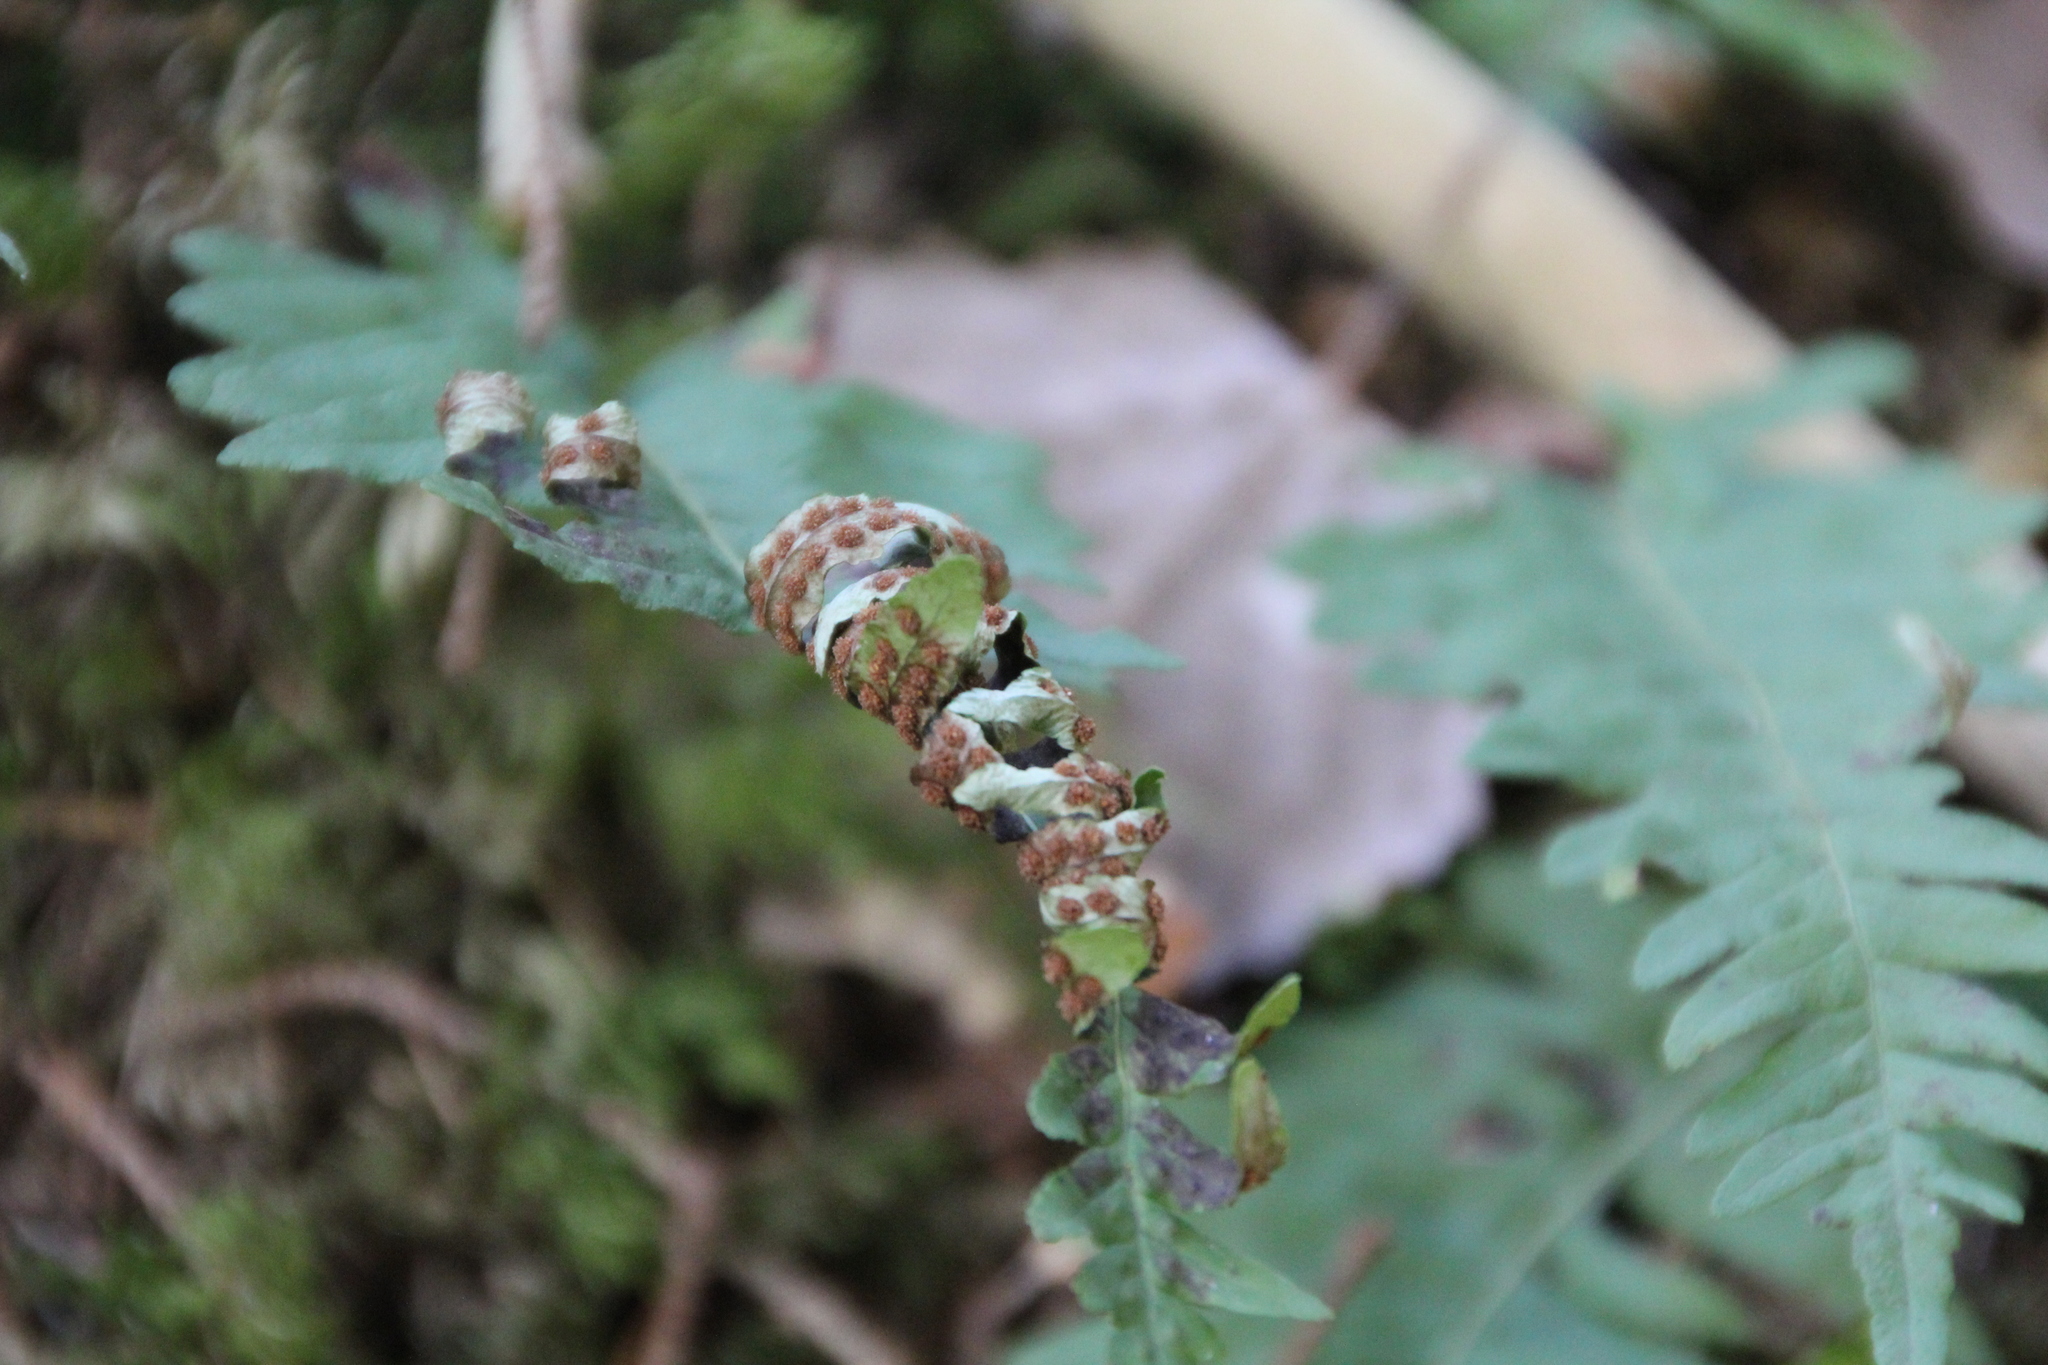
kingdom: Plantae
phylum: Tracheophyta
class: Polypodiopsida
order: Polypodiales
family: Polypodiaceae
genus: Polypodium
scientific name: Polypodium vulgare
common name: Common polypody
